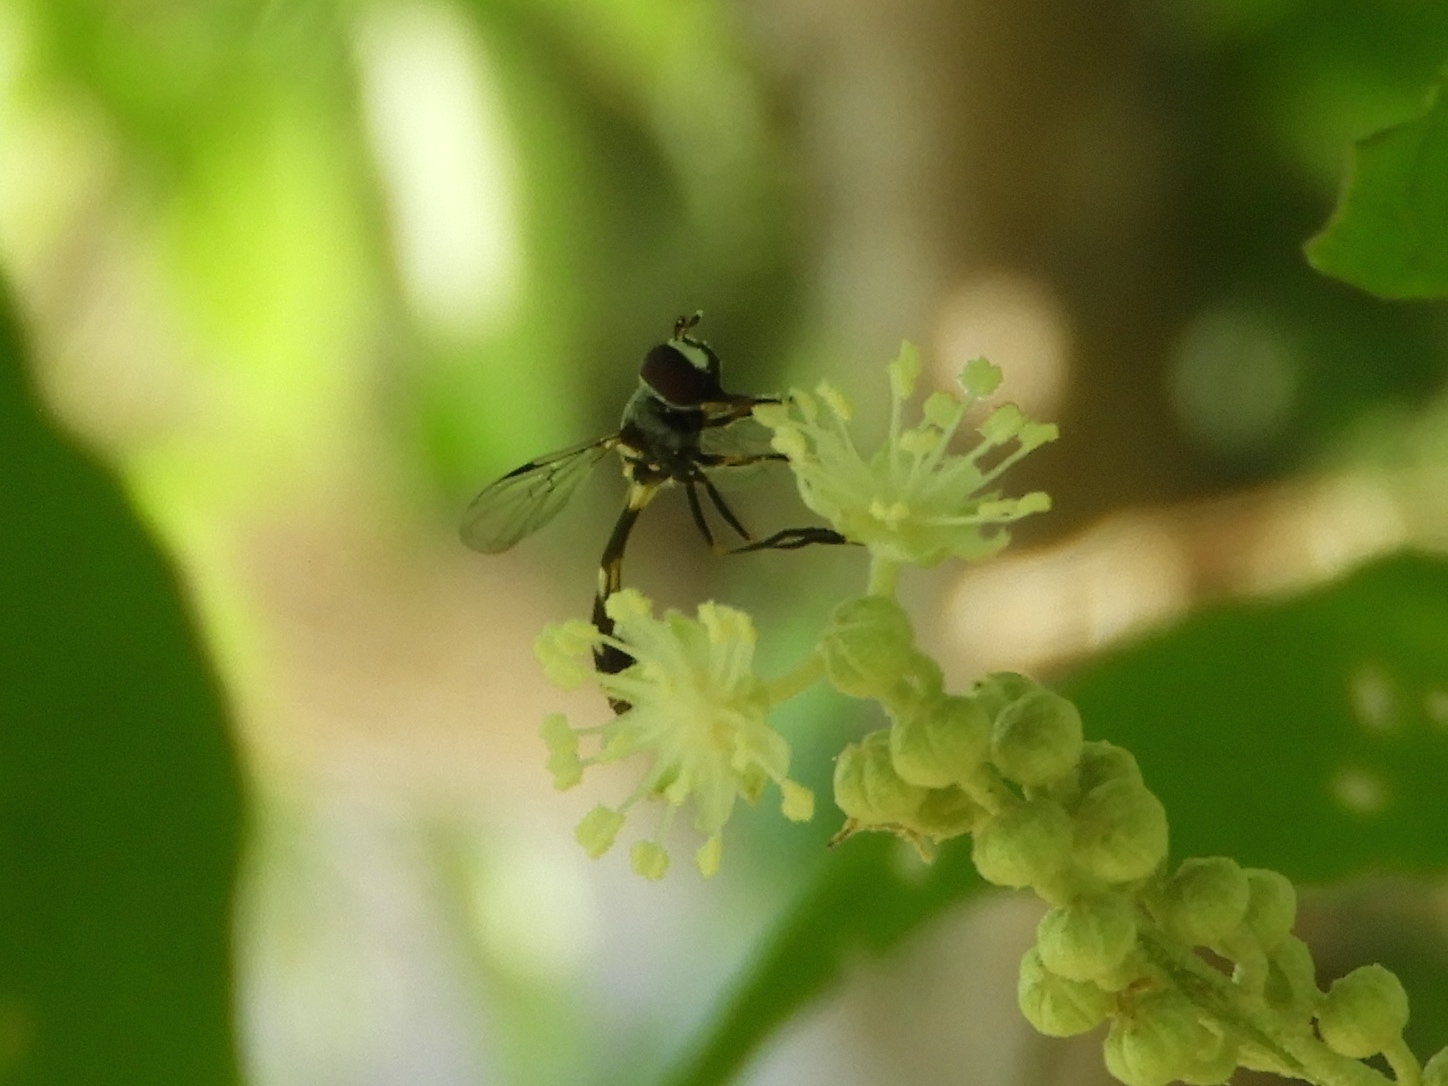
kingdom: Animalia
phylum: Arthropoda
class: Insecta
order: Diptera
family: Syrphidae
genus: Dioprosopa
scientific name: Dioprosopa clavatus
